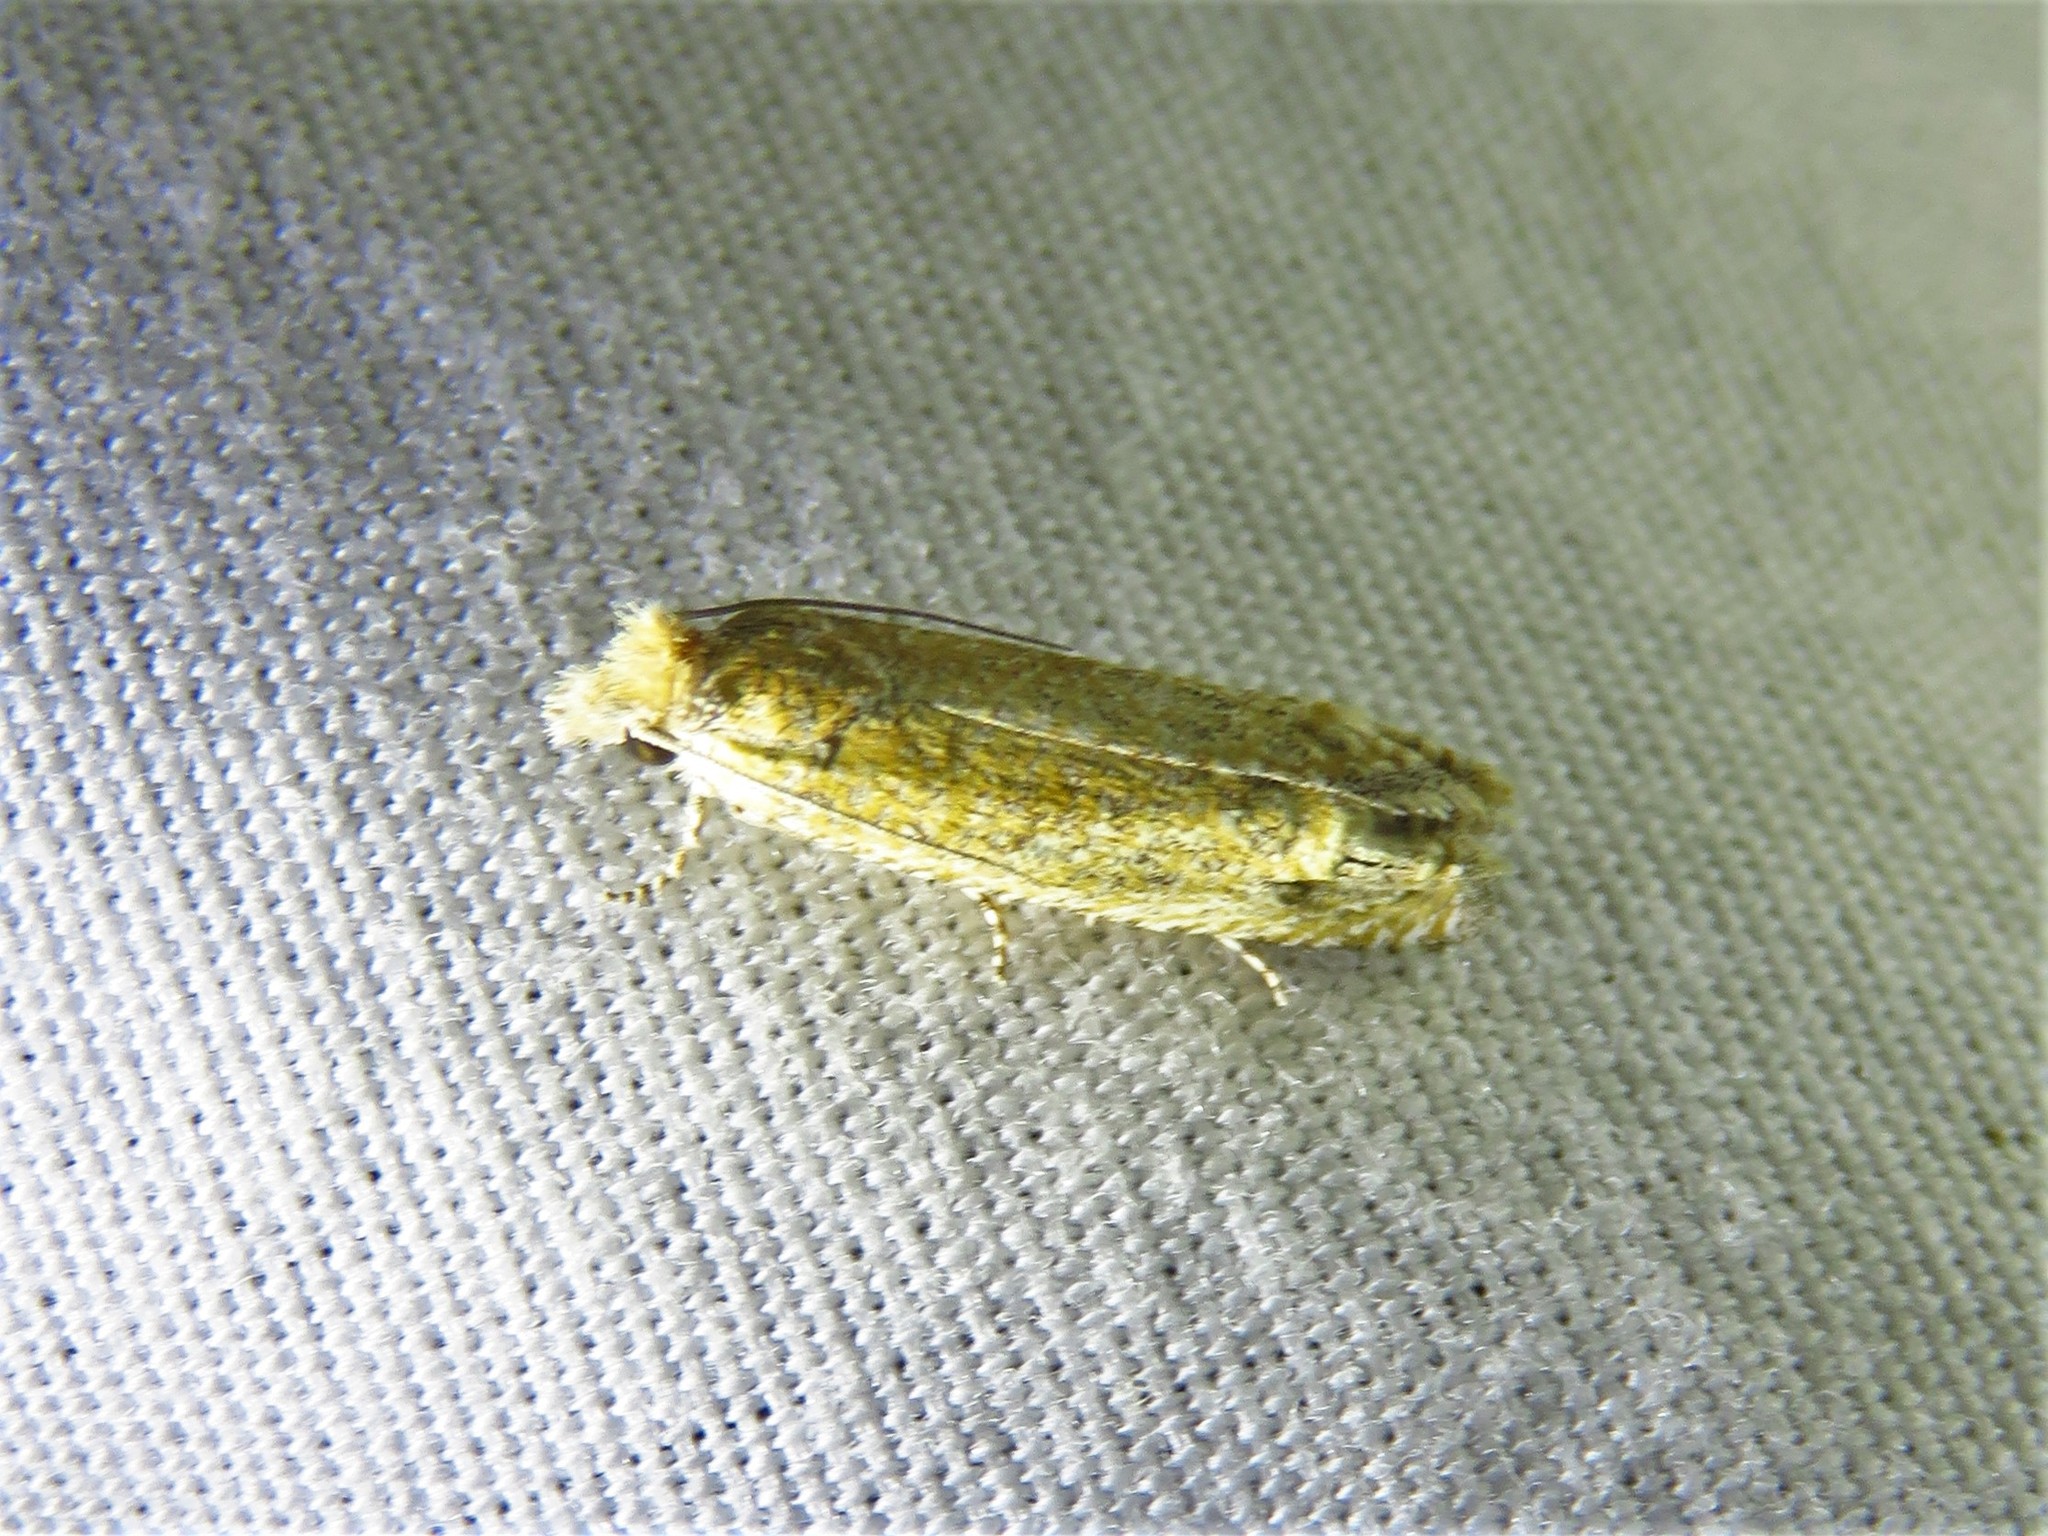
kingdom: Animalia
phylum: Arthropoda
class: Insecta
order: Lepidoptera
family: Tortricidae
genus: Pelochrista
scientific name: Pelochrista comatulana
